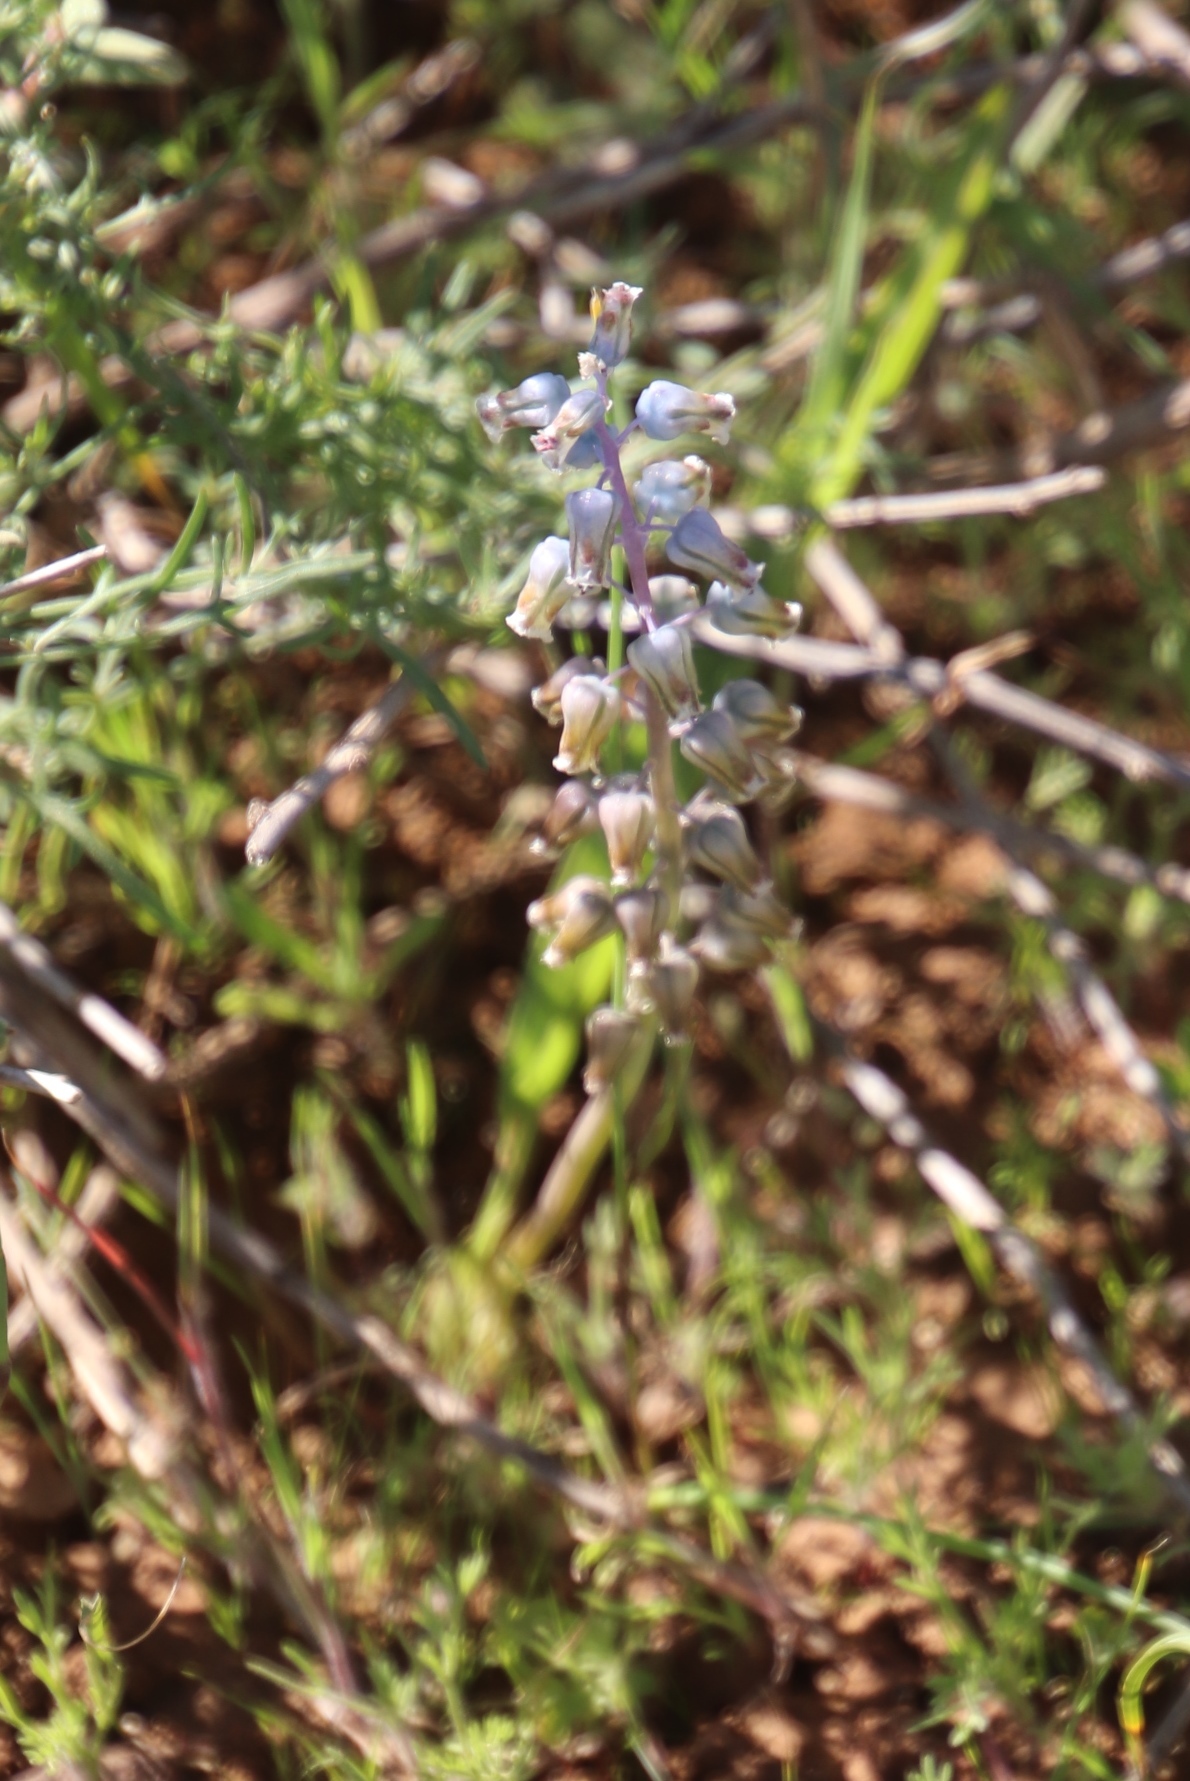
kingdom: Plantae
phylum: Tracheophyta
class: Liliopsida
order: Asparagales
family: Asparagaceae
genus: Lachenalia
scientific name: Lachenalia bolusii
